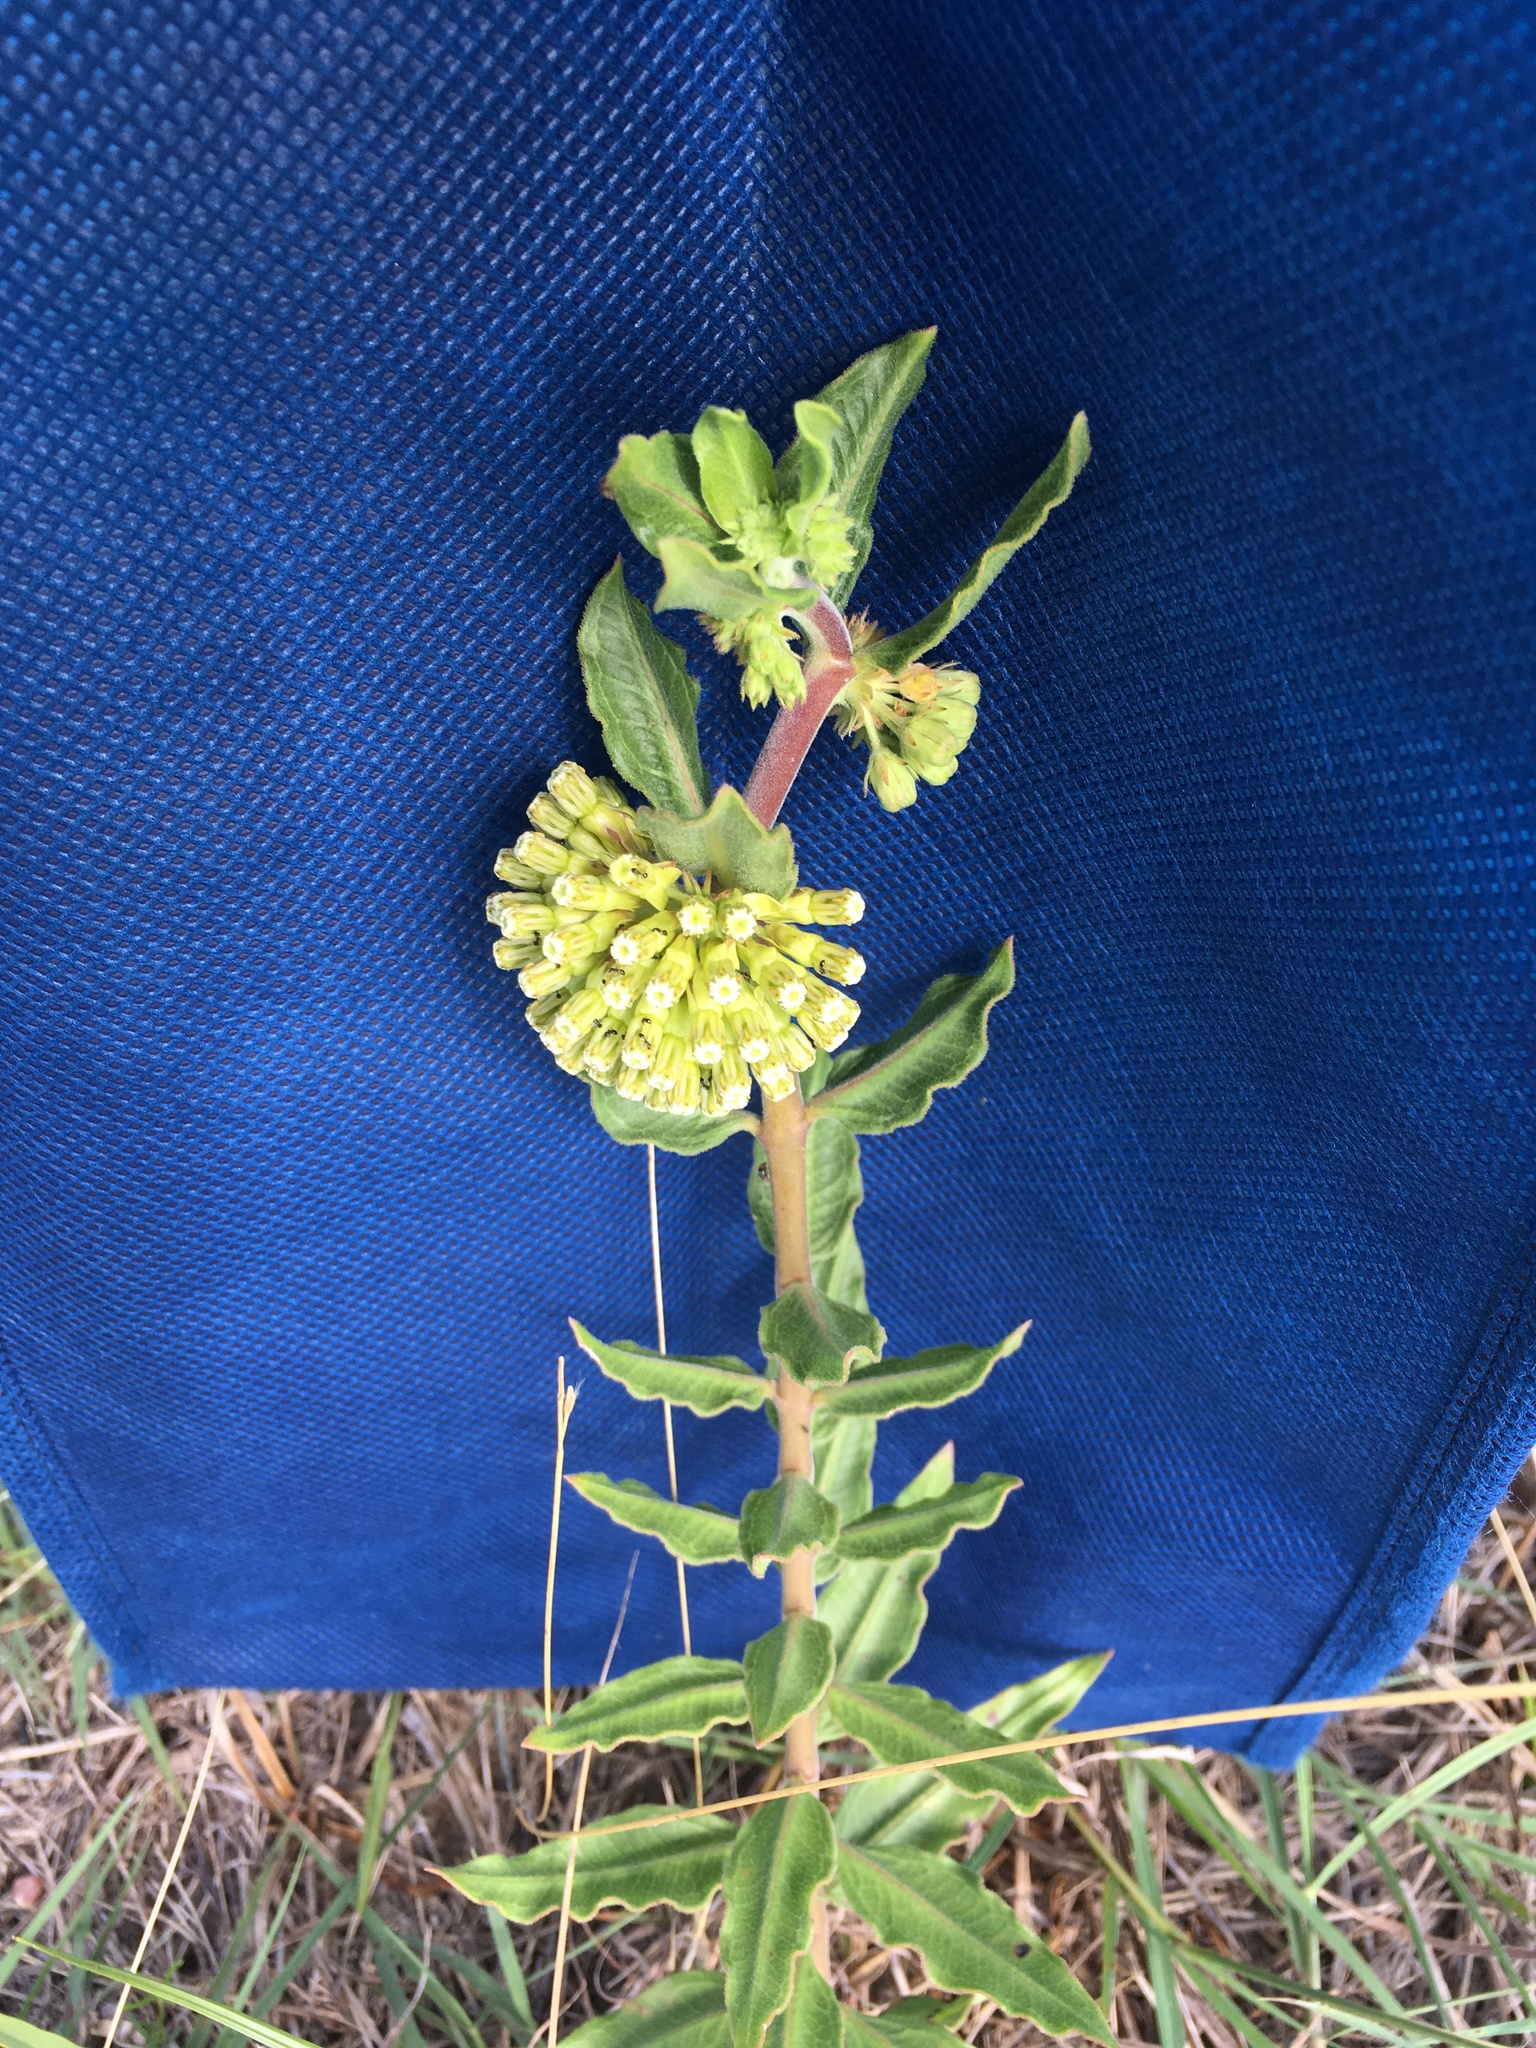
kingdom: Plantae
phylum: Tracheophyta
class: Magnoliopsida
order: Gentianales
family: Apocynaceae
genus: Asclepias
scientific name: Asclepias viridiflora
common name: Green comet milkweed
